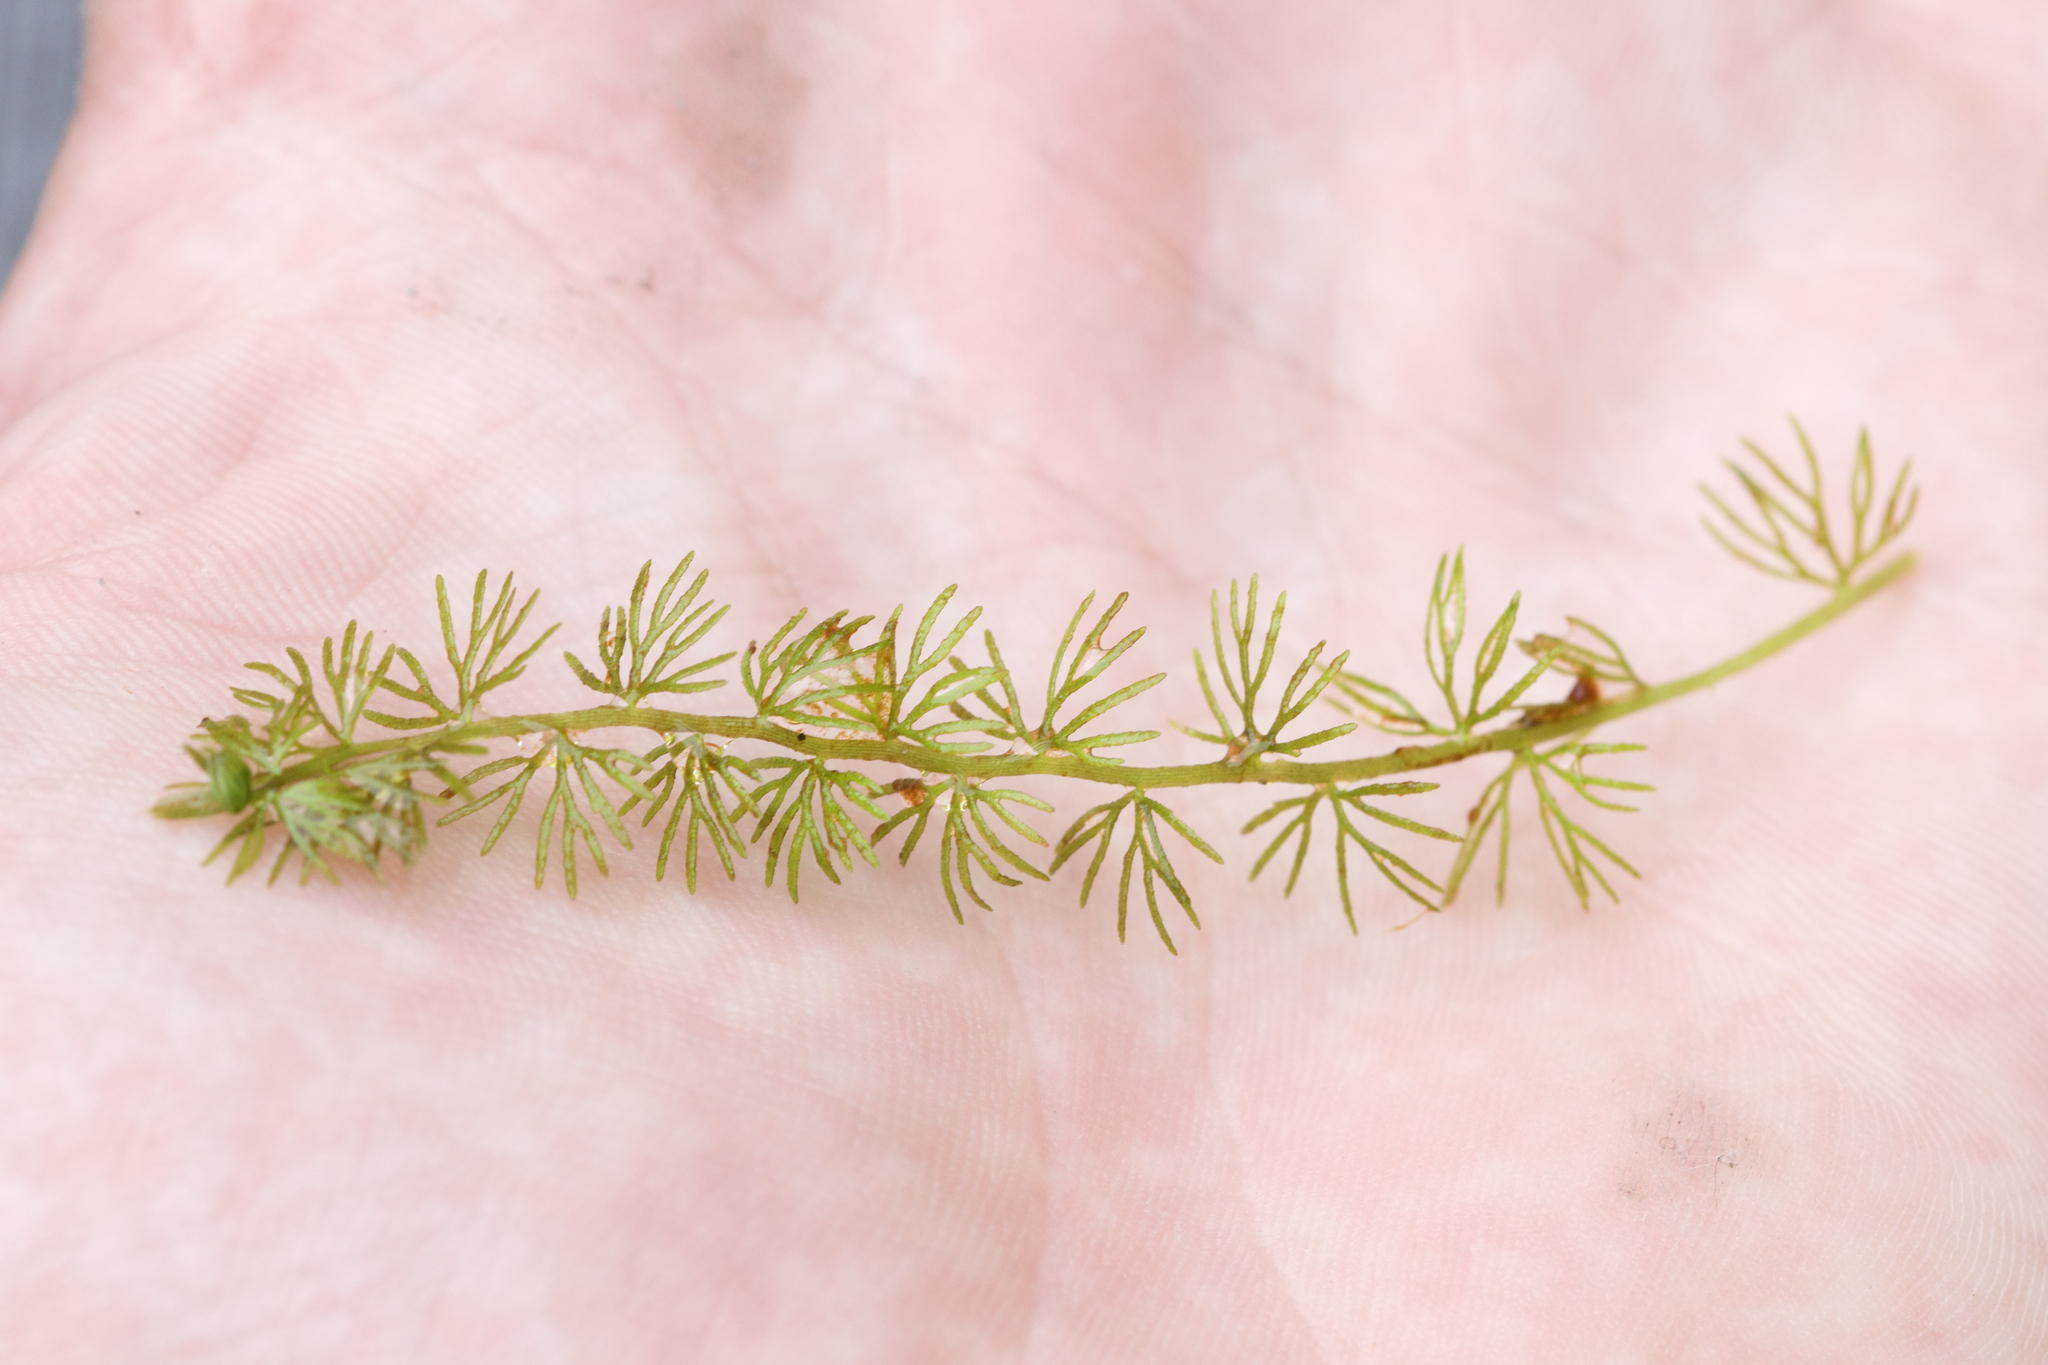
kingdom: Plantae
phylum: Tracheophyta
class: Magnoliopsida
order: Ceratophyllales
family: Ceratophyllaceae
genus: Ceratophyllum
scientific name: Ceratophyllum demersum
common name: Rigid hornwort
